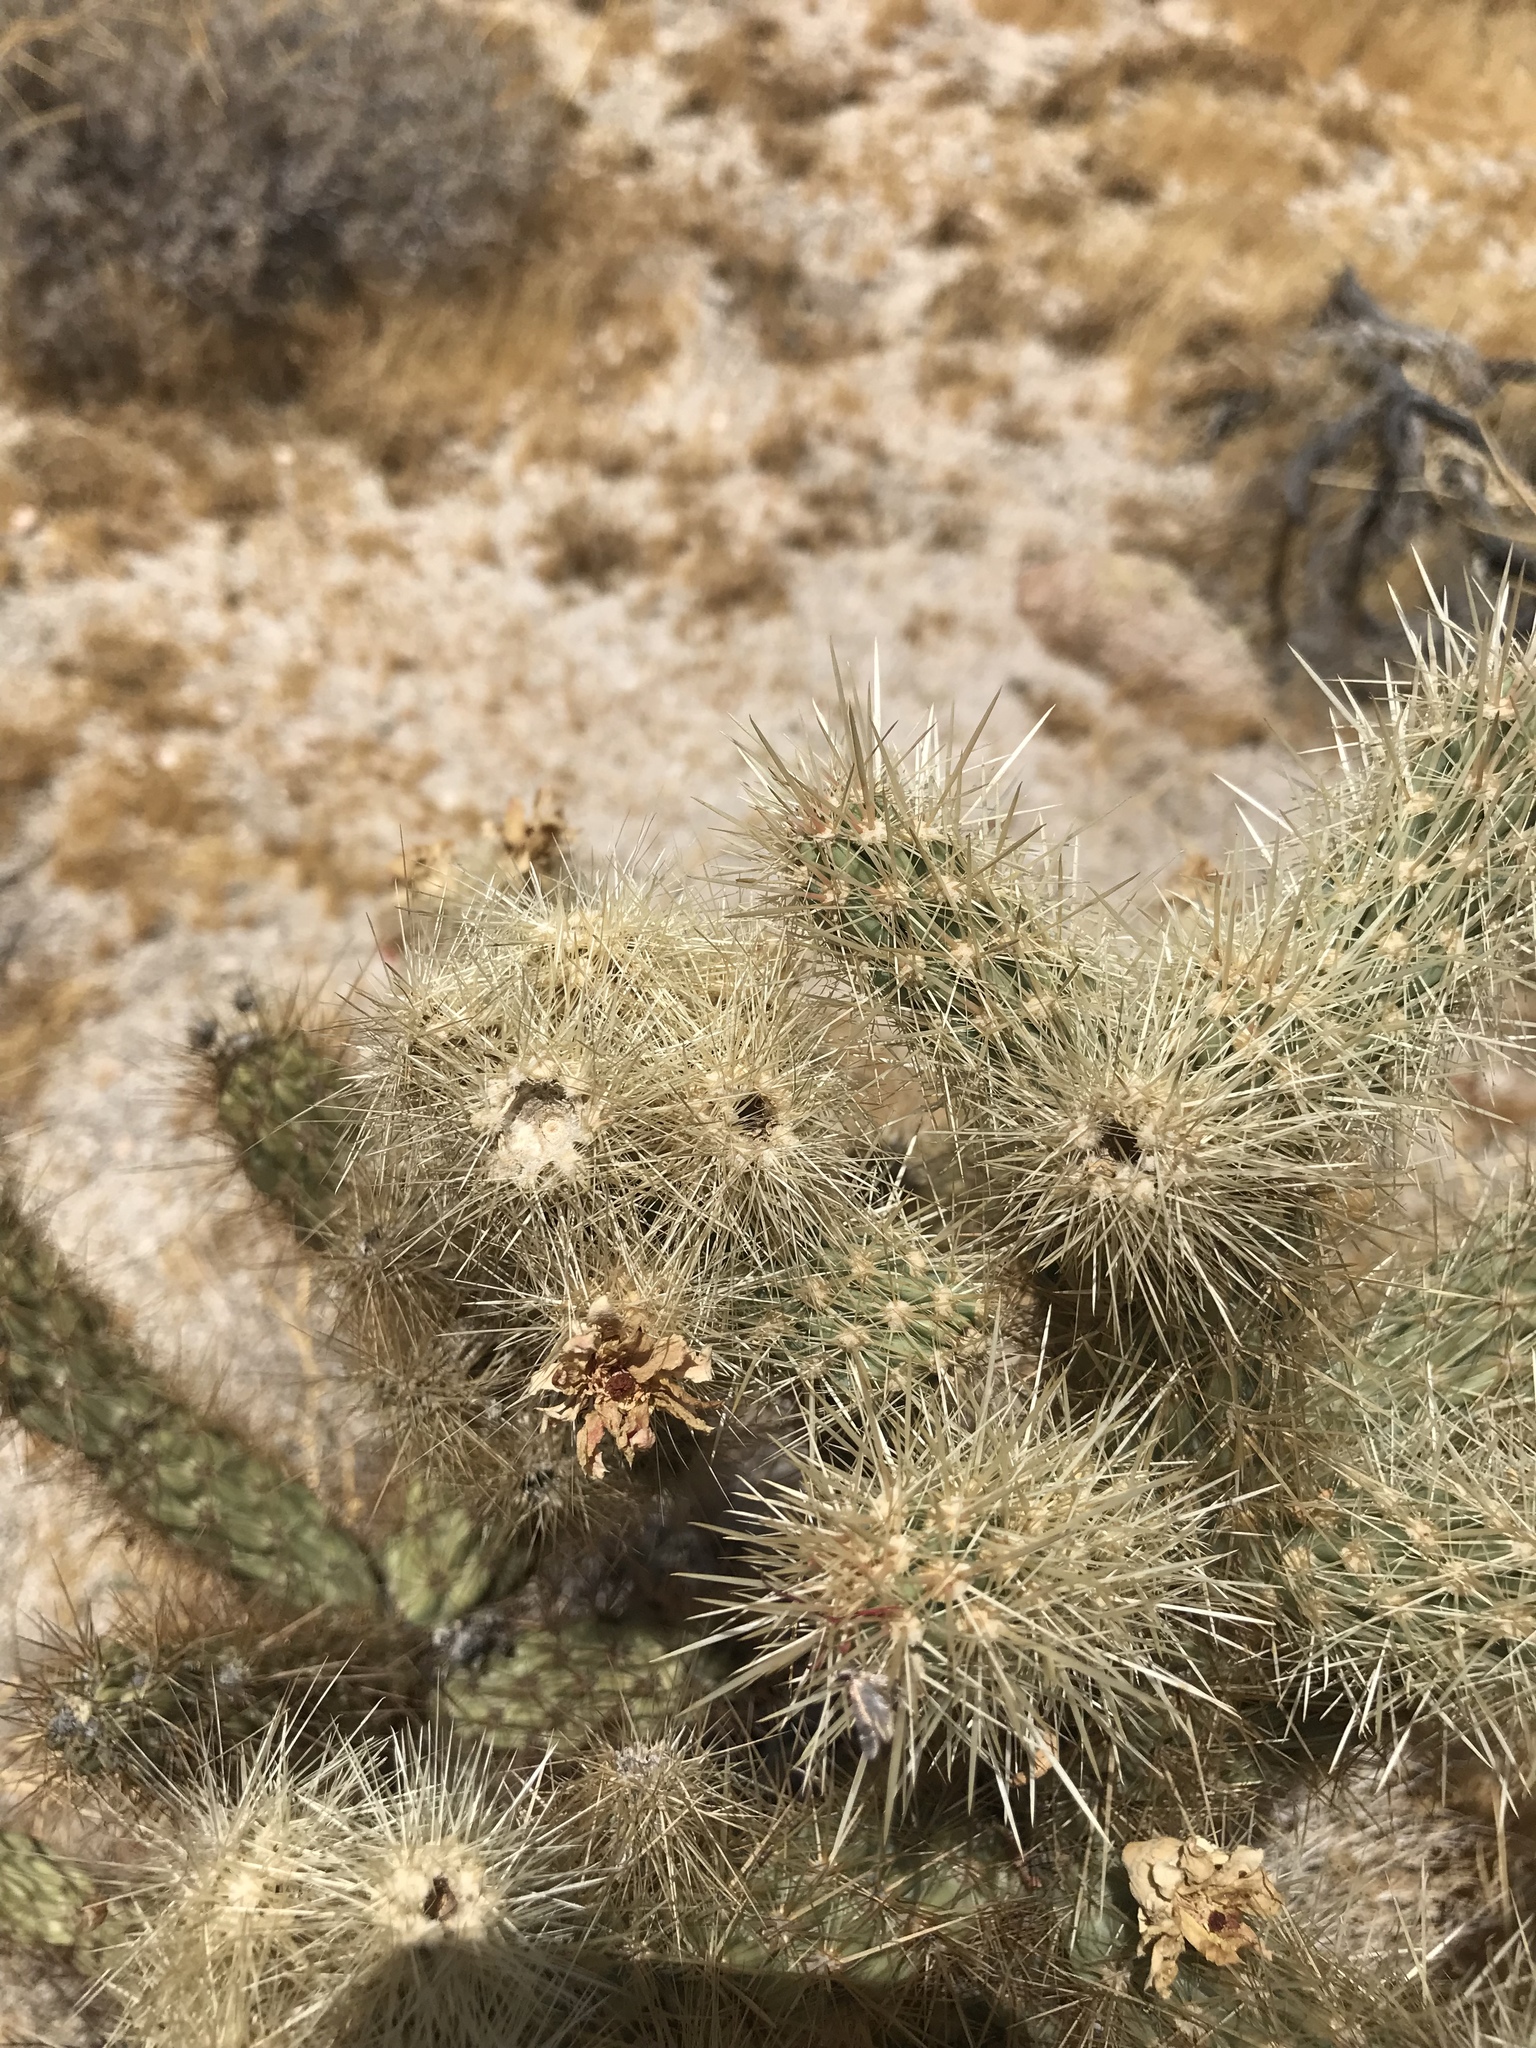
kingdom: Plantae
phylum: Tracheophyta
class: Magnoliopsida
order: Caryophyllales
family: Cactaceae
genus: Cylindropuntia
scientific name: Cylindropuntia wolfii
